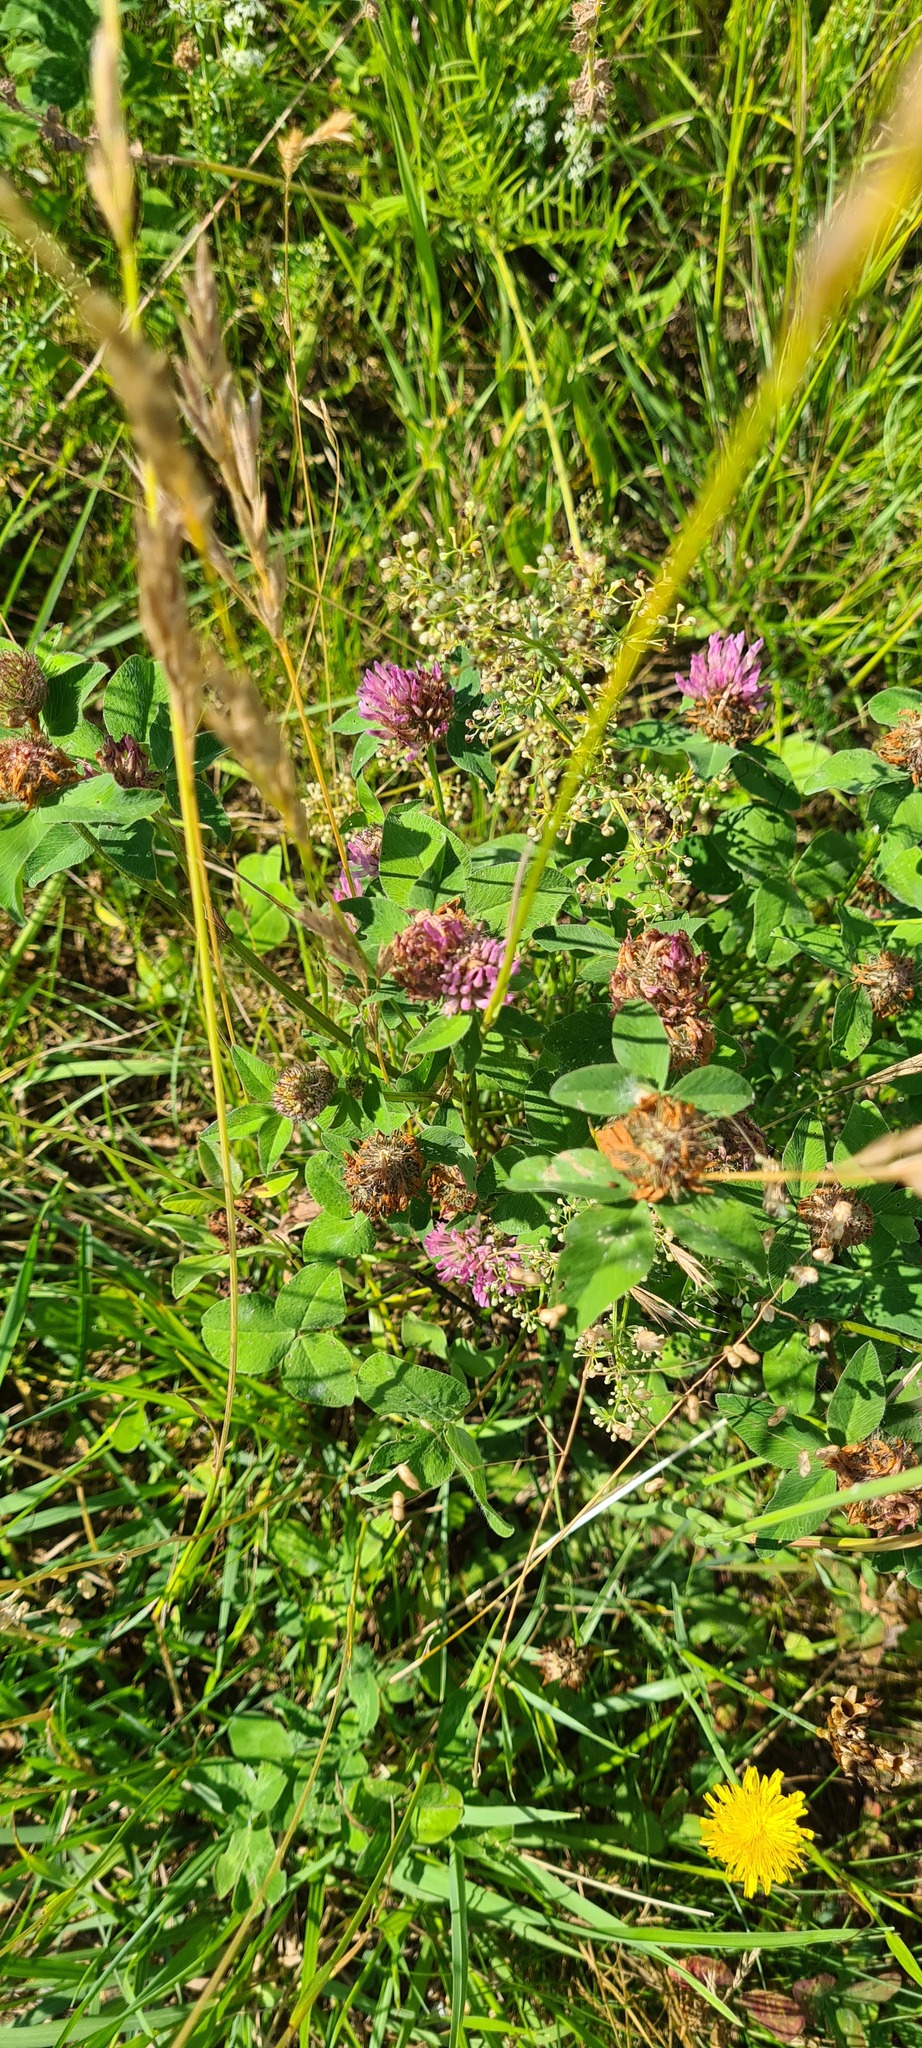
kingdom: Plantae
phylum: Tracheophyta
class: Magnoliopsida
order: Fabales
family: Fabaceae
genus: Trifolium
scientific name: Trifolium pratense
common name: Red clover
